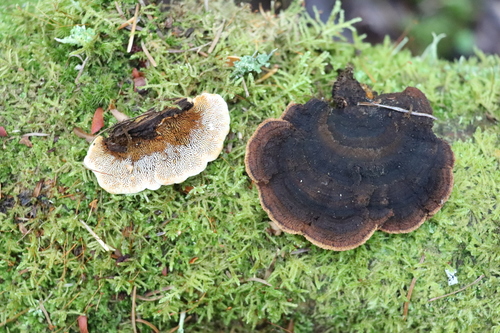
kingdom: Fungi
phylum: Basidiomycota
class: Agaricomycetes
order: Gloeophyllales
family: Gloeophyllaceae
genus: Gloeophyllum
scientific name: Gloeophyllum sepiarium
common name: Conifer mazegill
